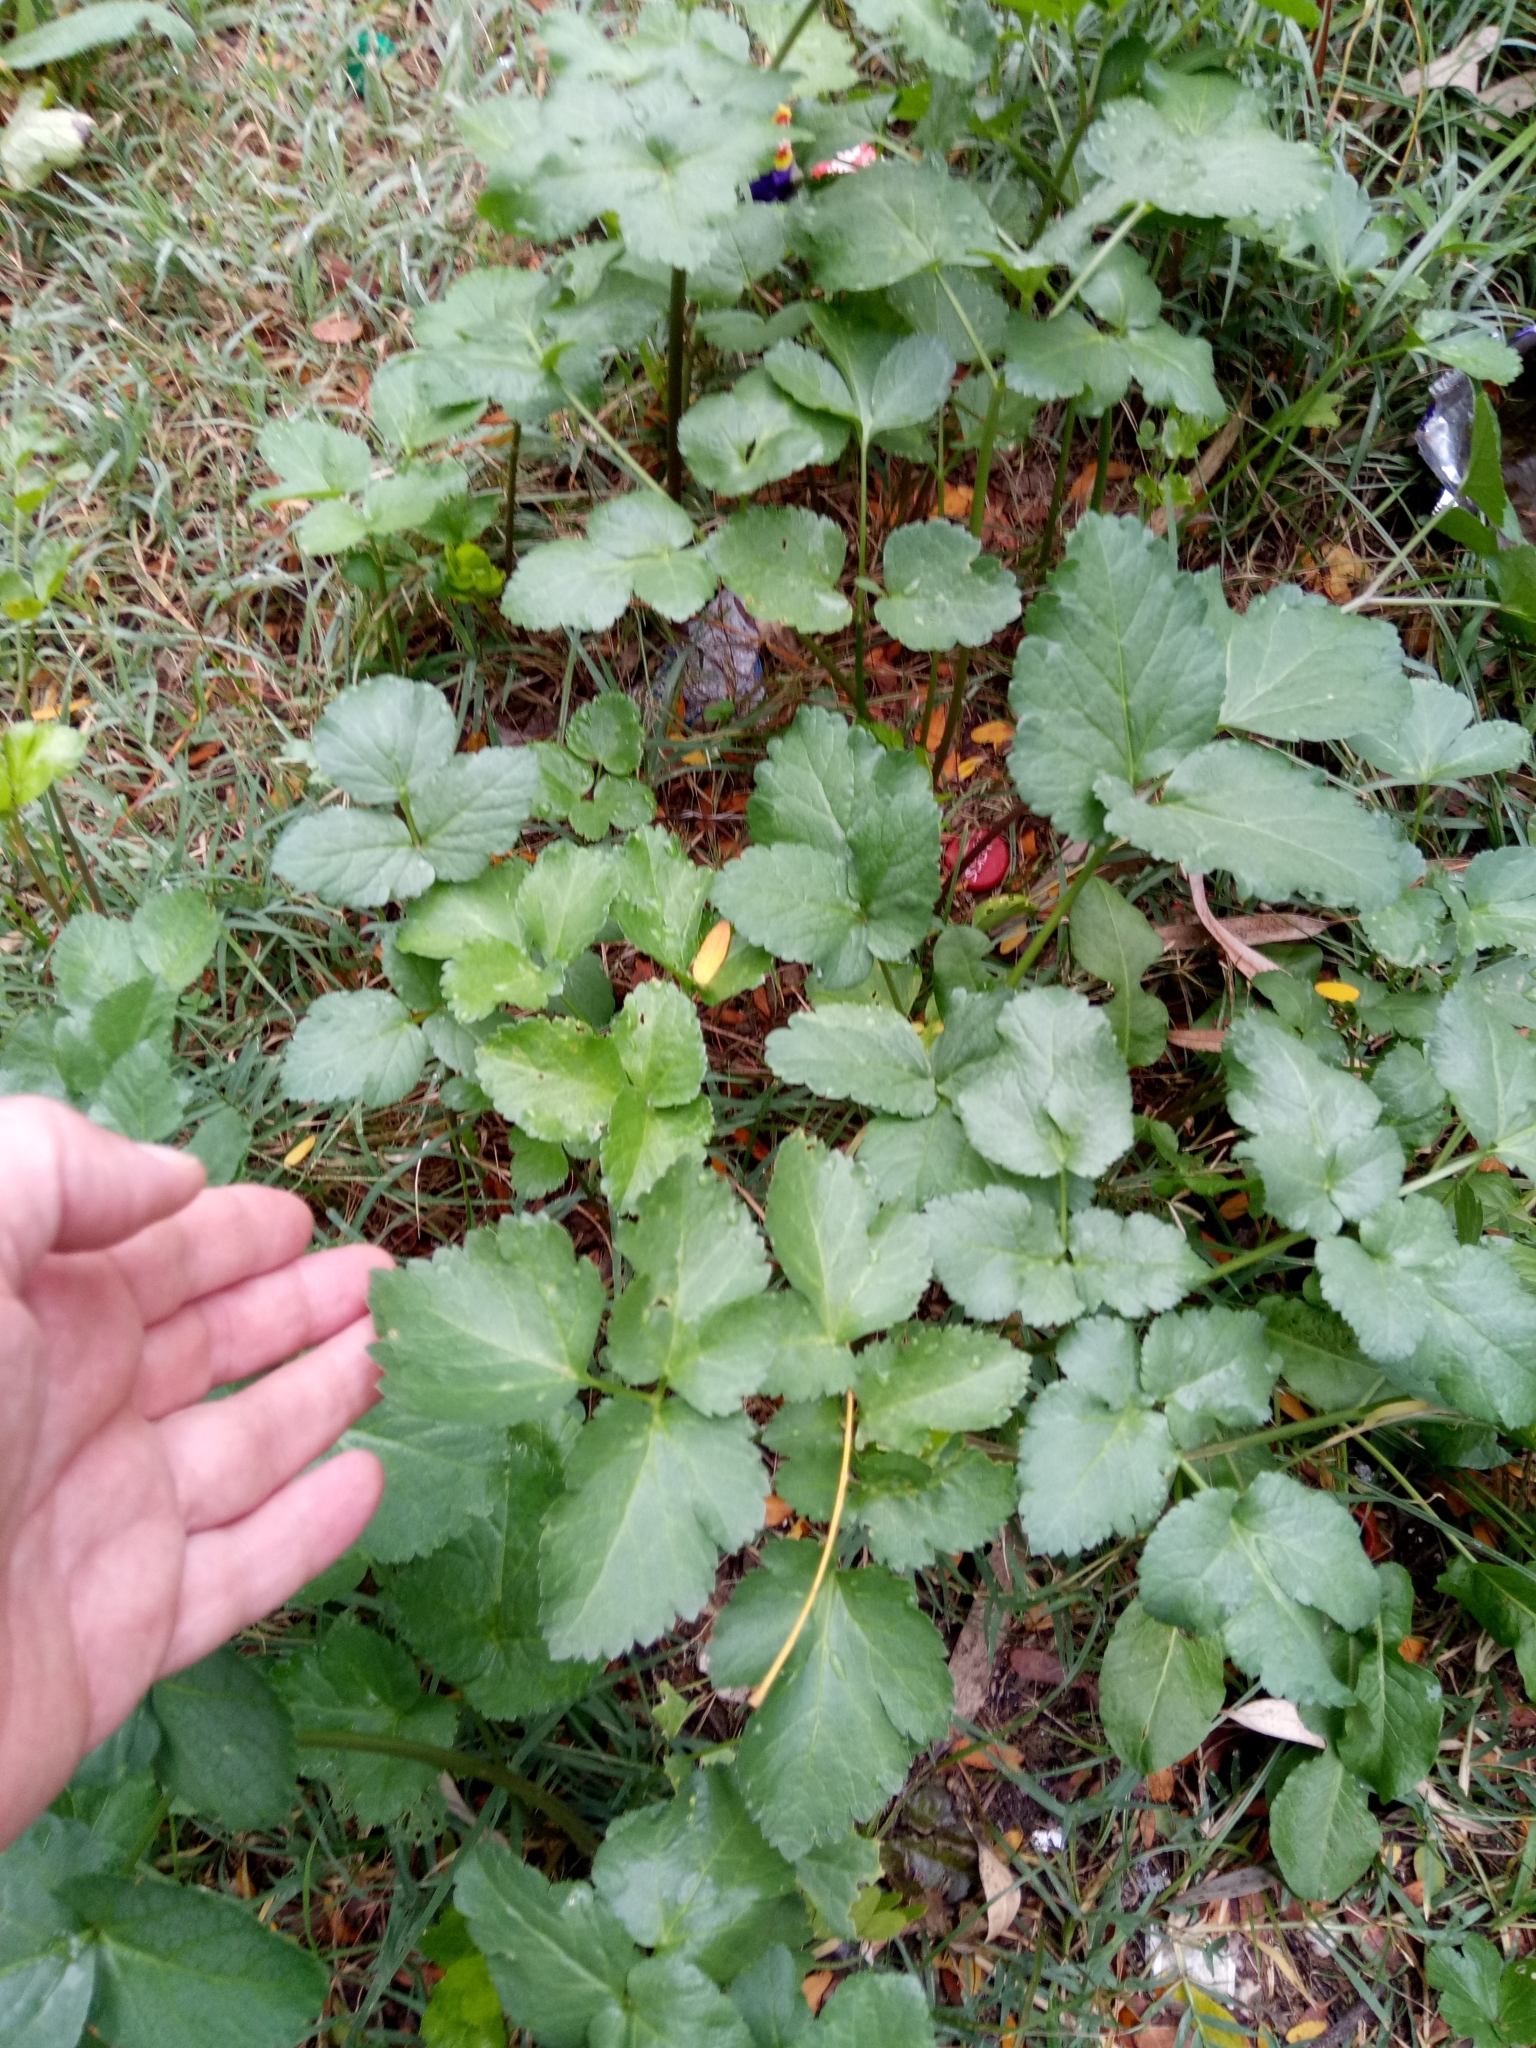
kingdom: Plantae
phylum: Tracheophyta
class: Magnoliopsida
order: Apiales
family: Apiaceae
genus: Smyrnium
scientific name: Smyrnium olusatrum
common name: Alexanders
